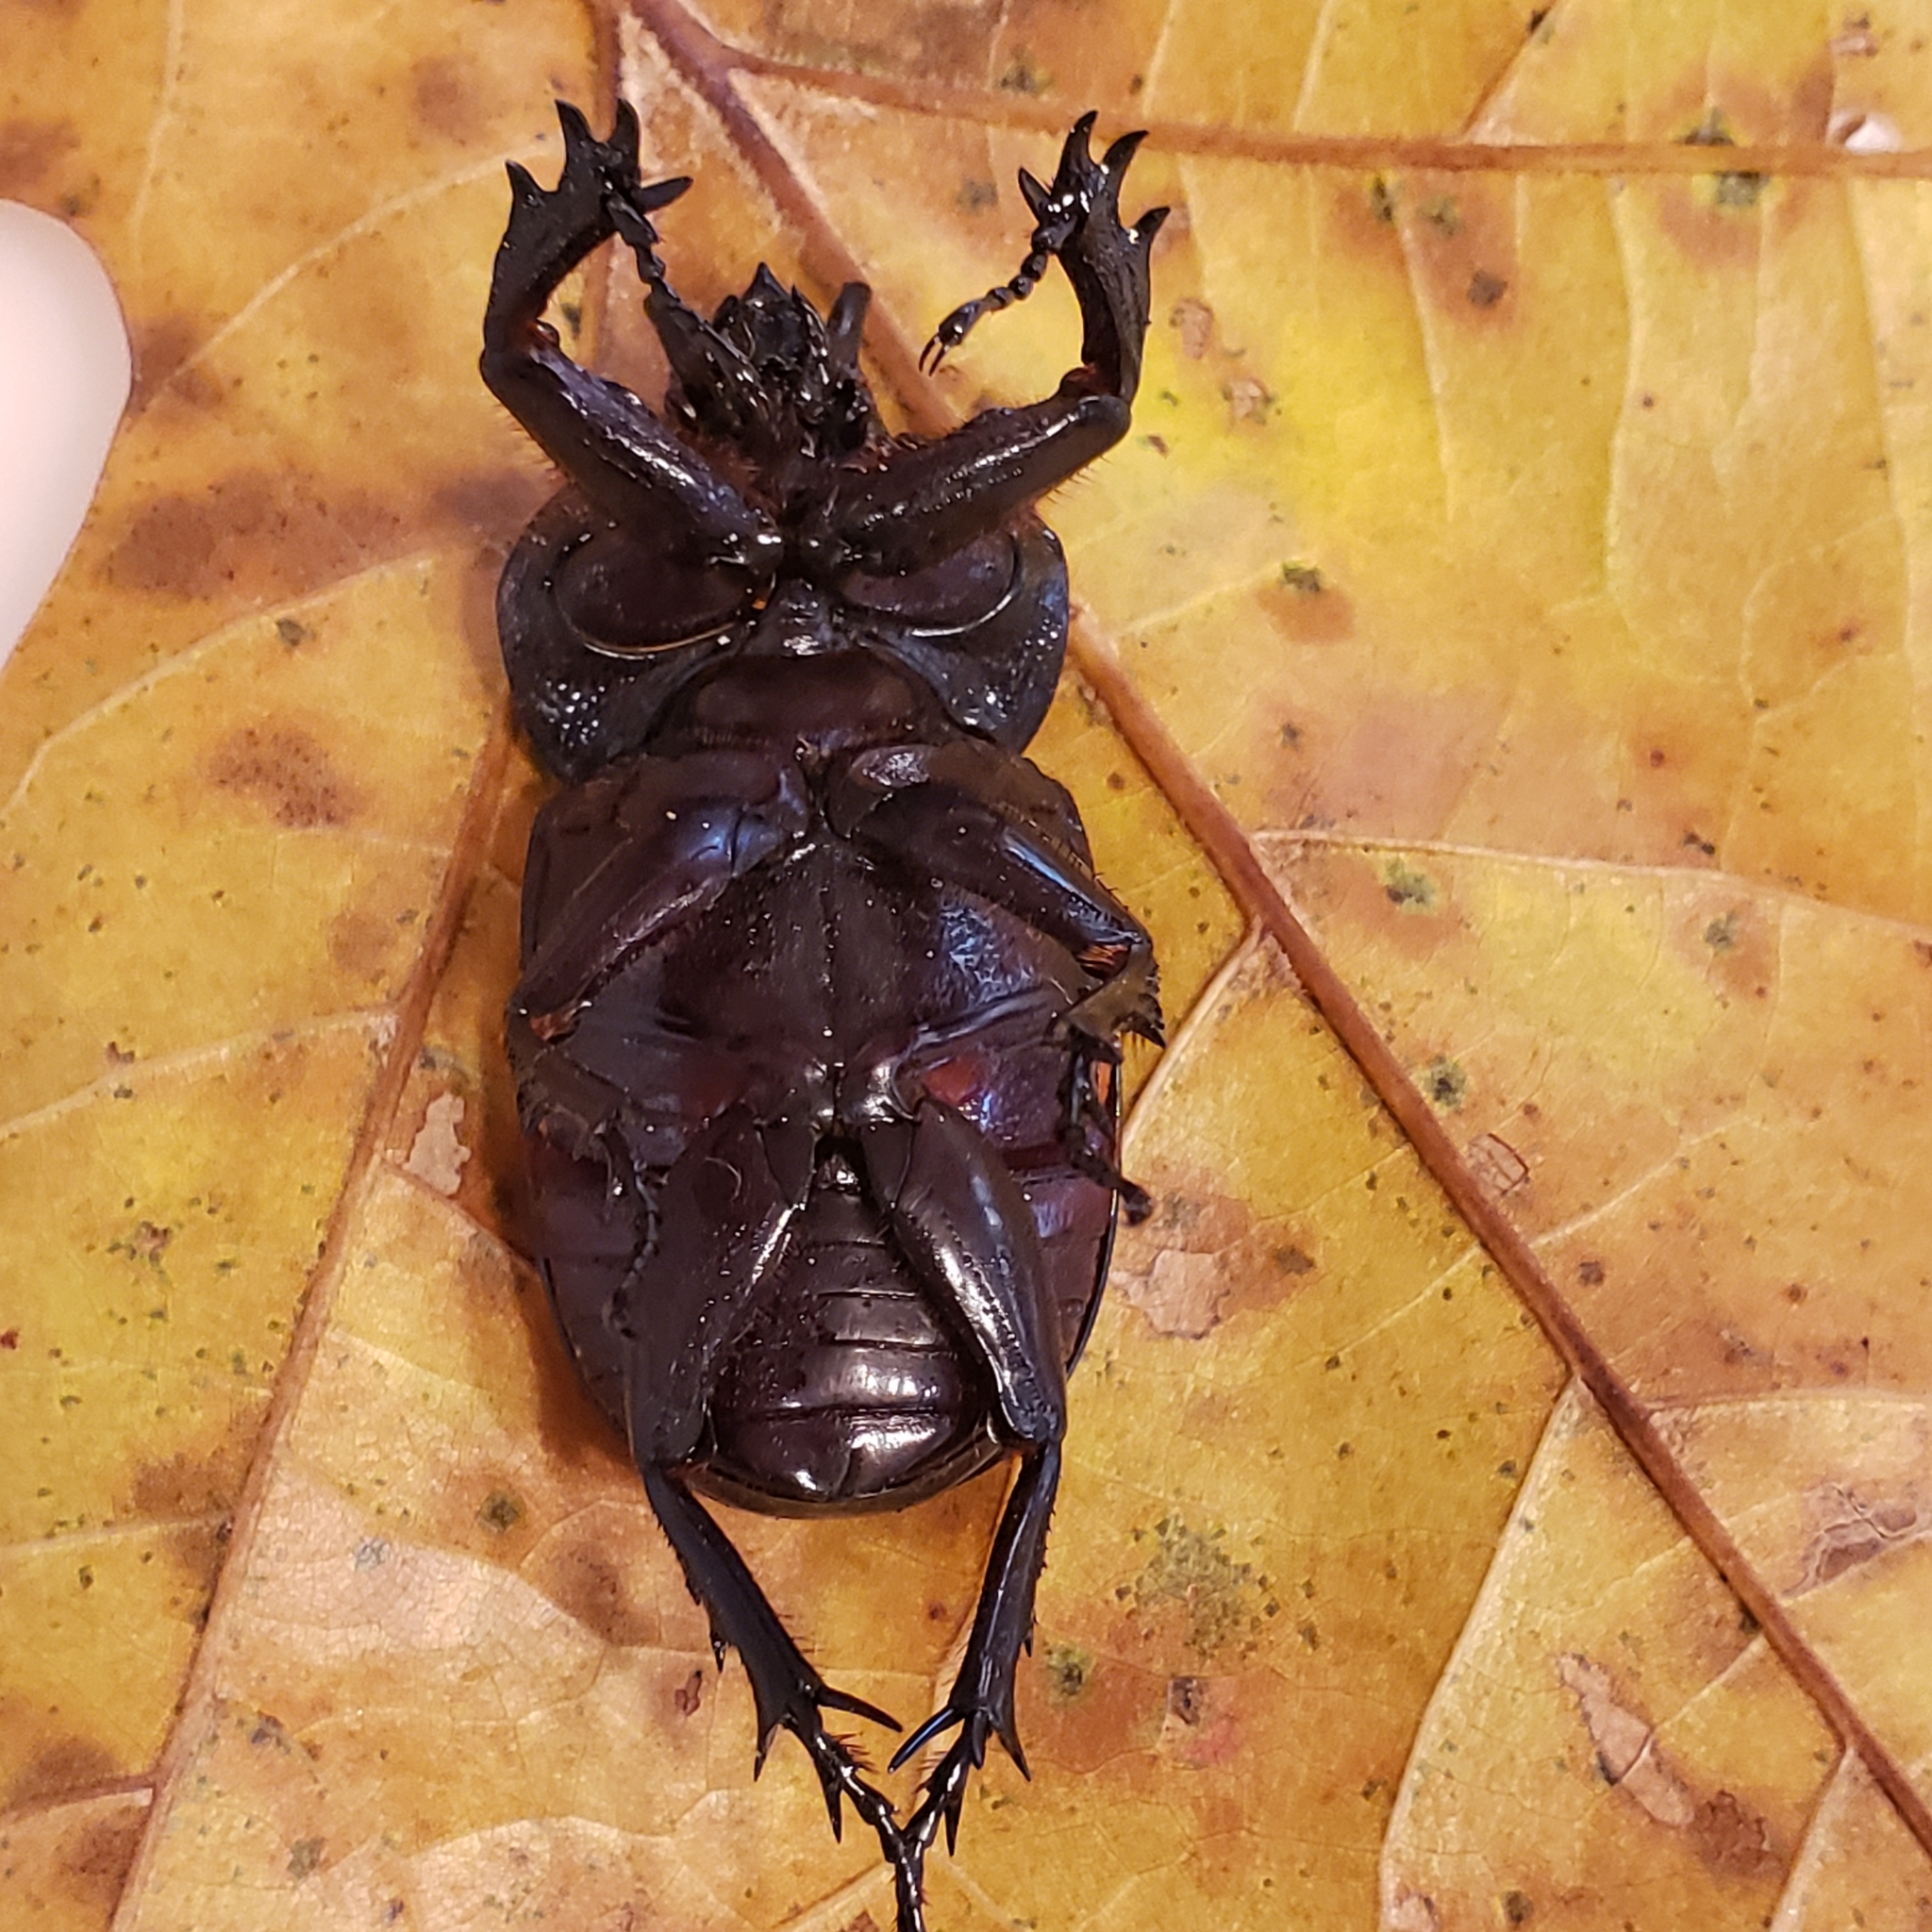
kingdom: Animalia
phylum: Arthropoda
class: Insecta
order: Coleoptera
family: Scarabaeidae
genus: Phileurus
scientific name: Phileurus truncatus
